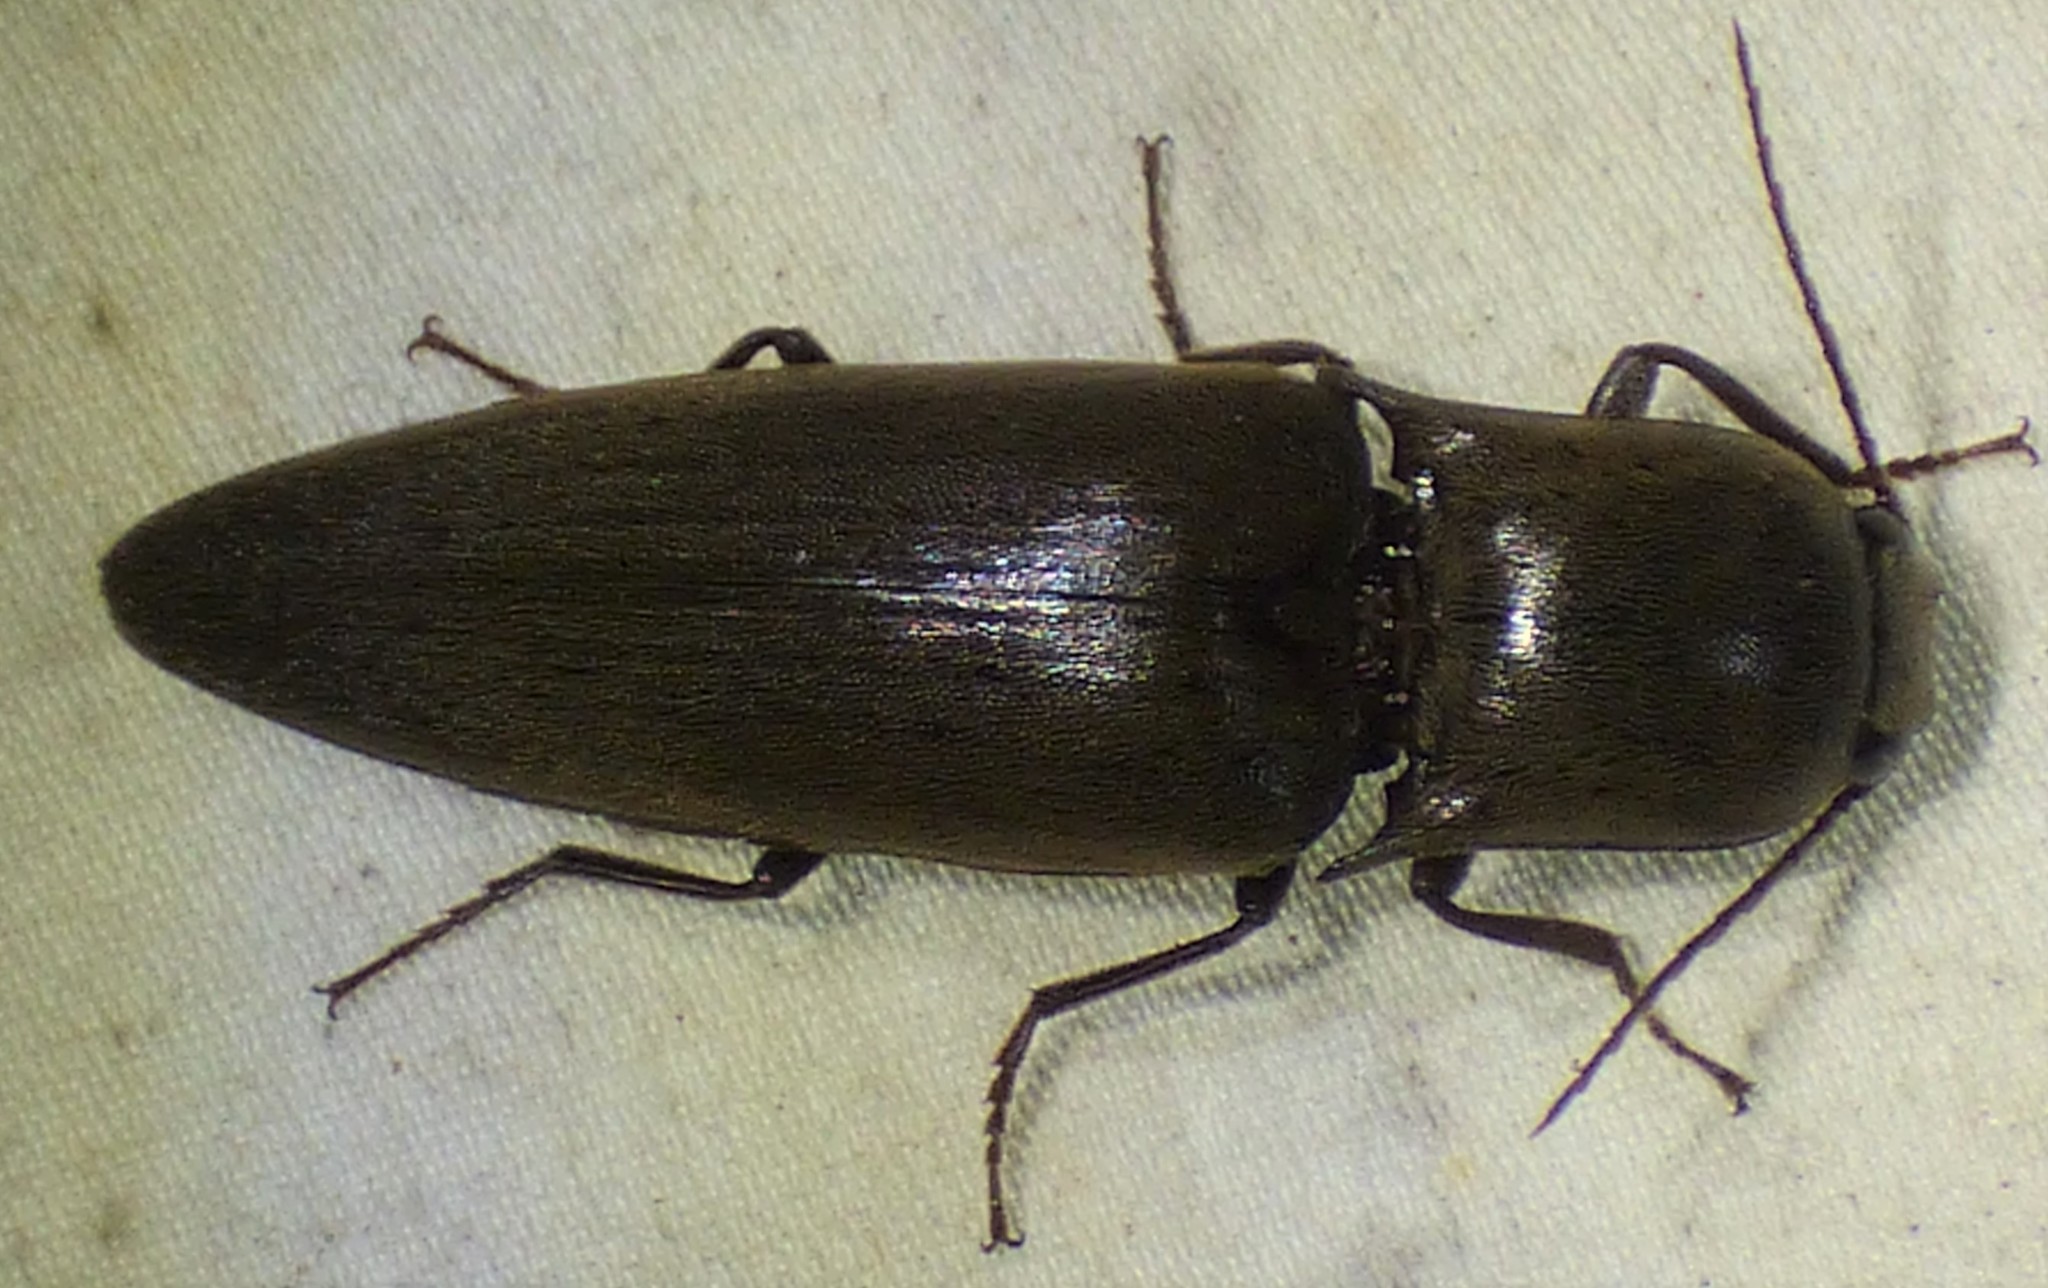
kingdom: Animalia
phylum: Arthropoda
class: Insecta
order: Coleoptera
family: Elateridae
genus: Orthostethus
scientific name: Orthostethus infuscatus
